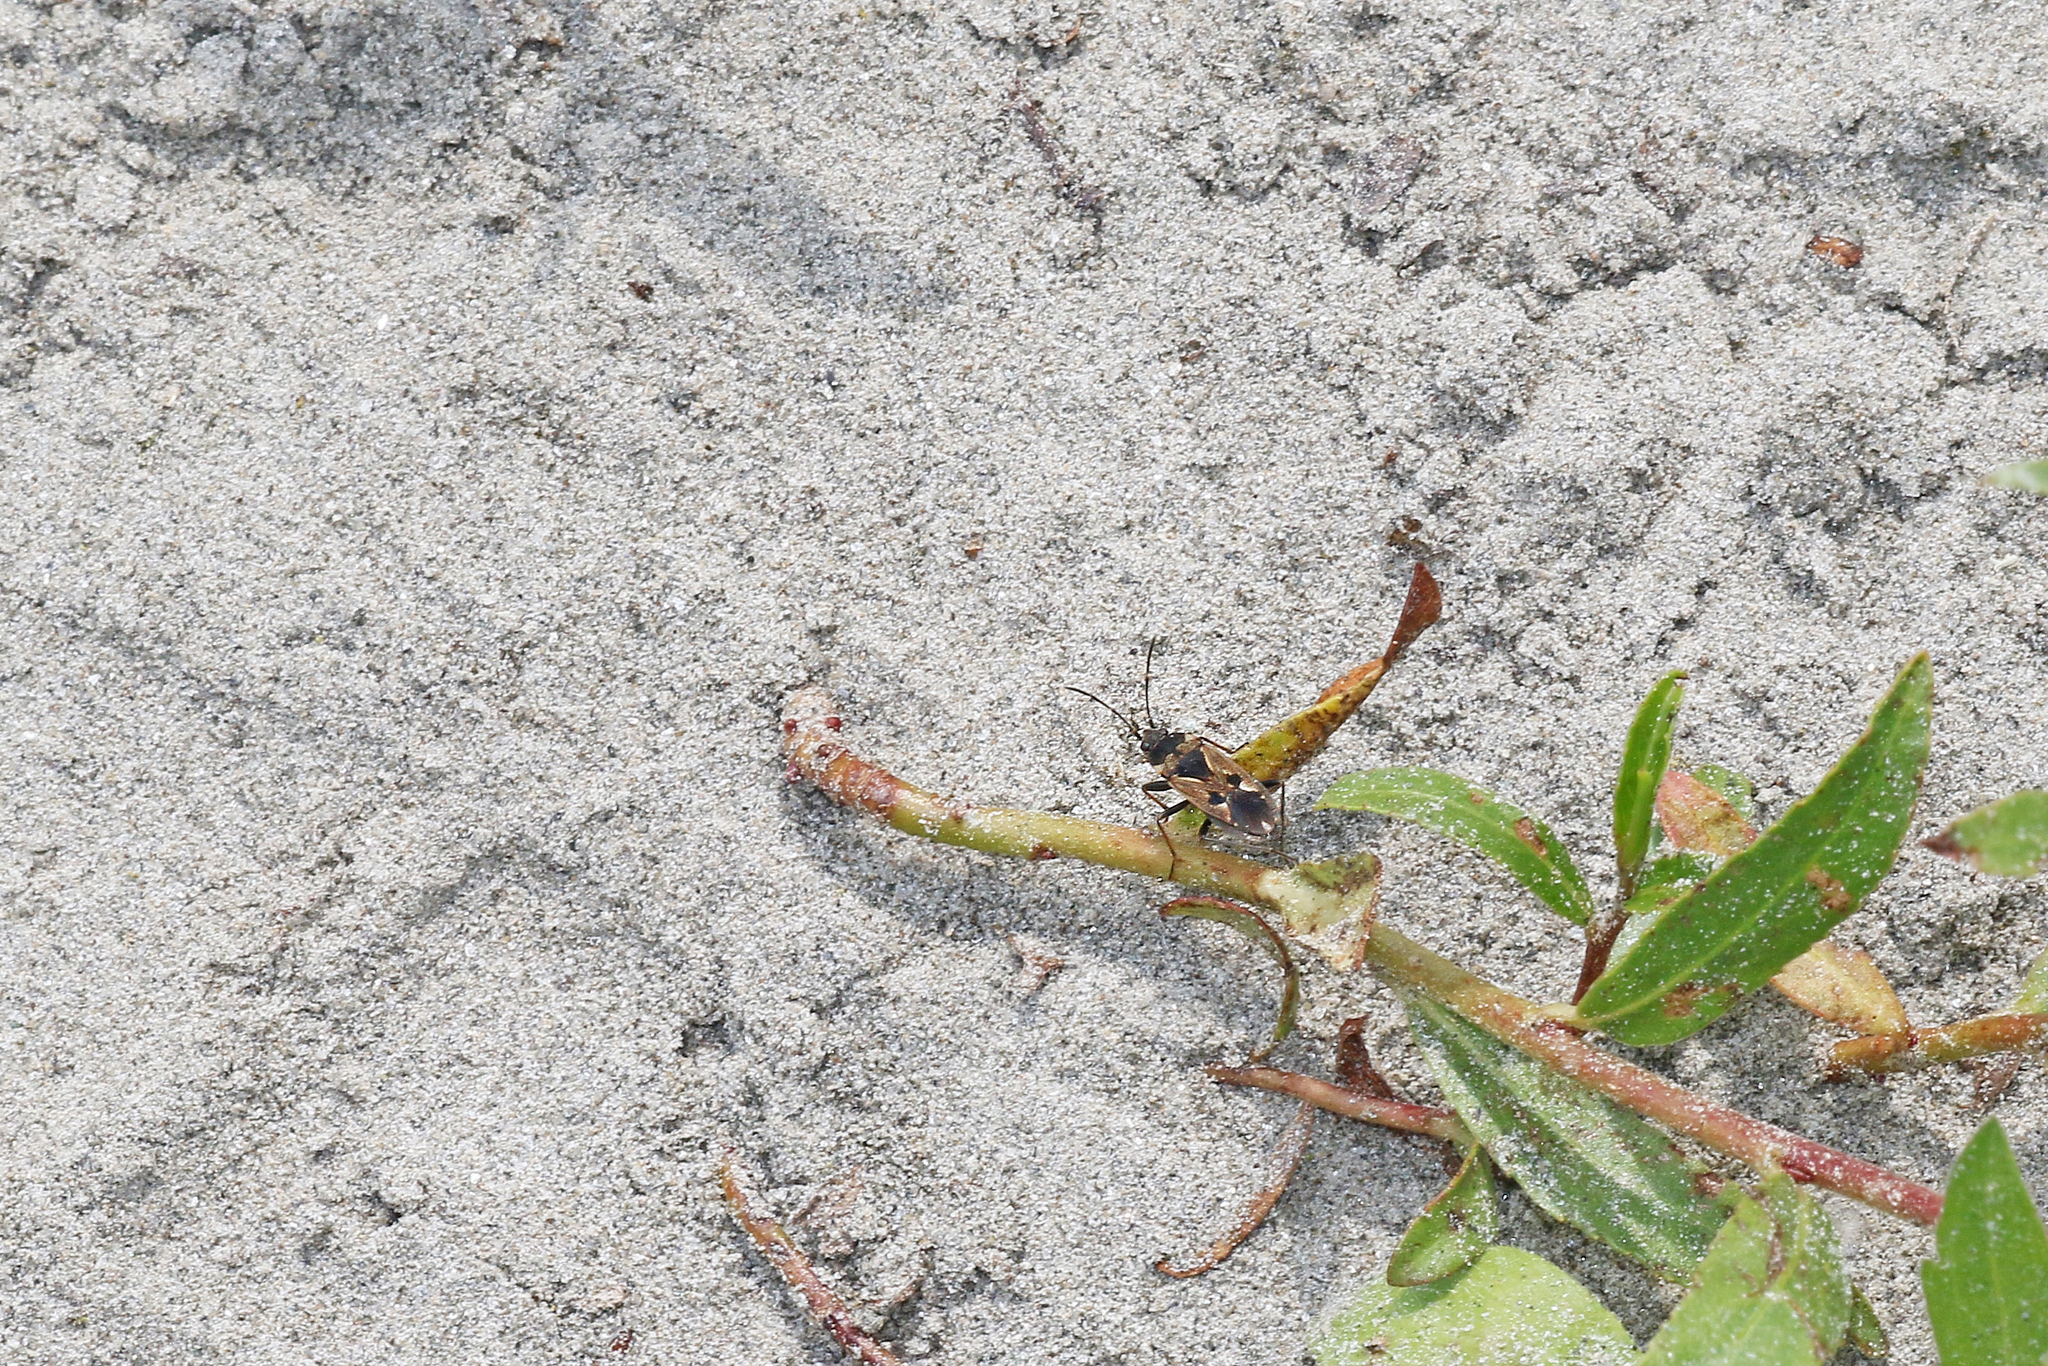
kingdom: Animalia
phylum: Arthropoda
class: Insecta
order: Hemiptera
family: Rhyparochromidae
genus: Rhyparochromus
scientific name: Rhyparochromus vulgaris
